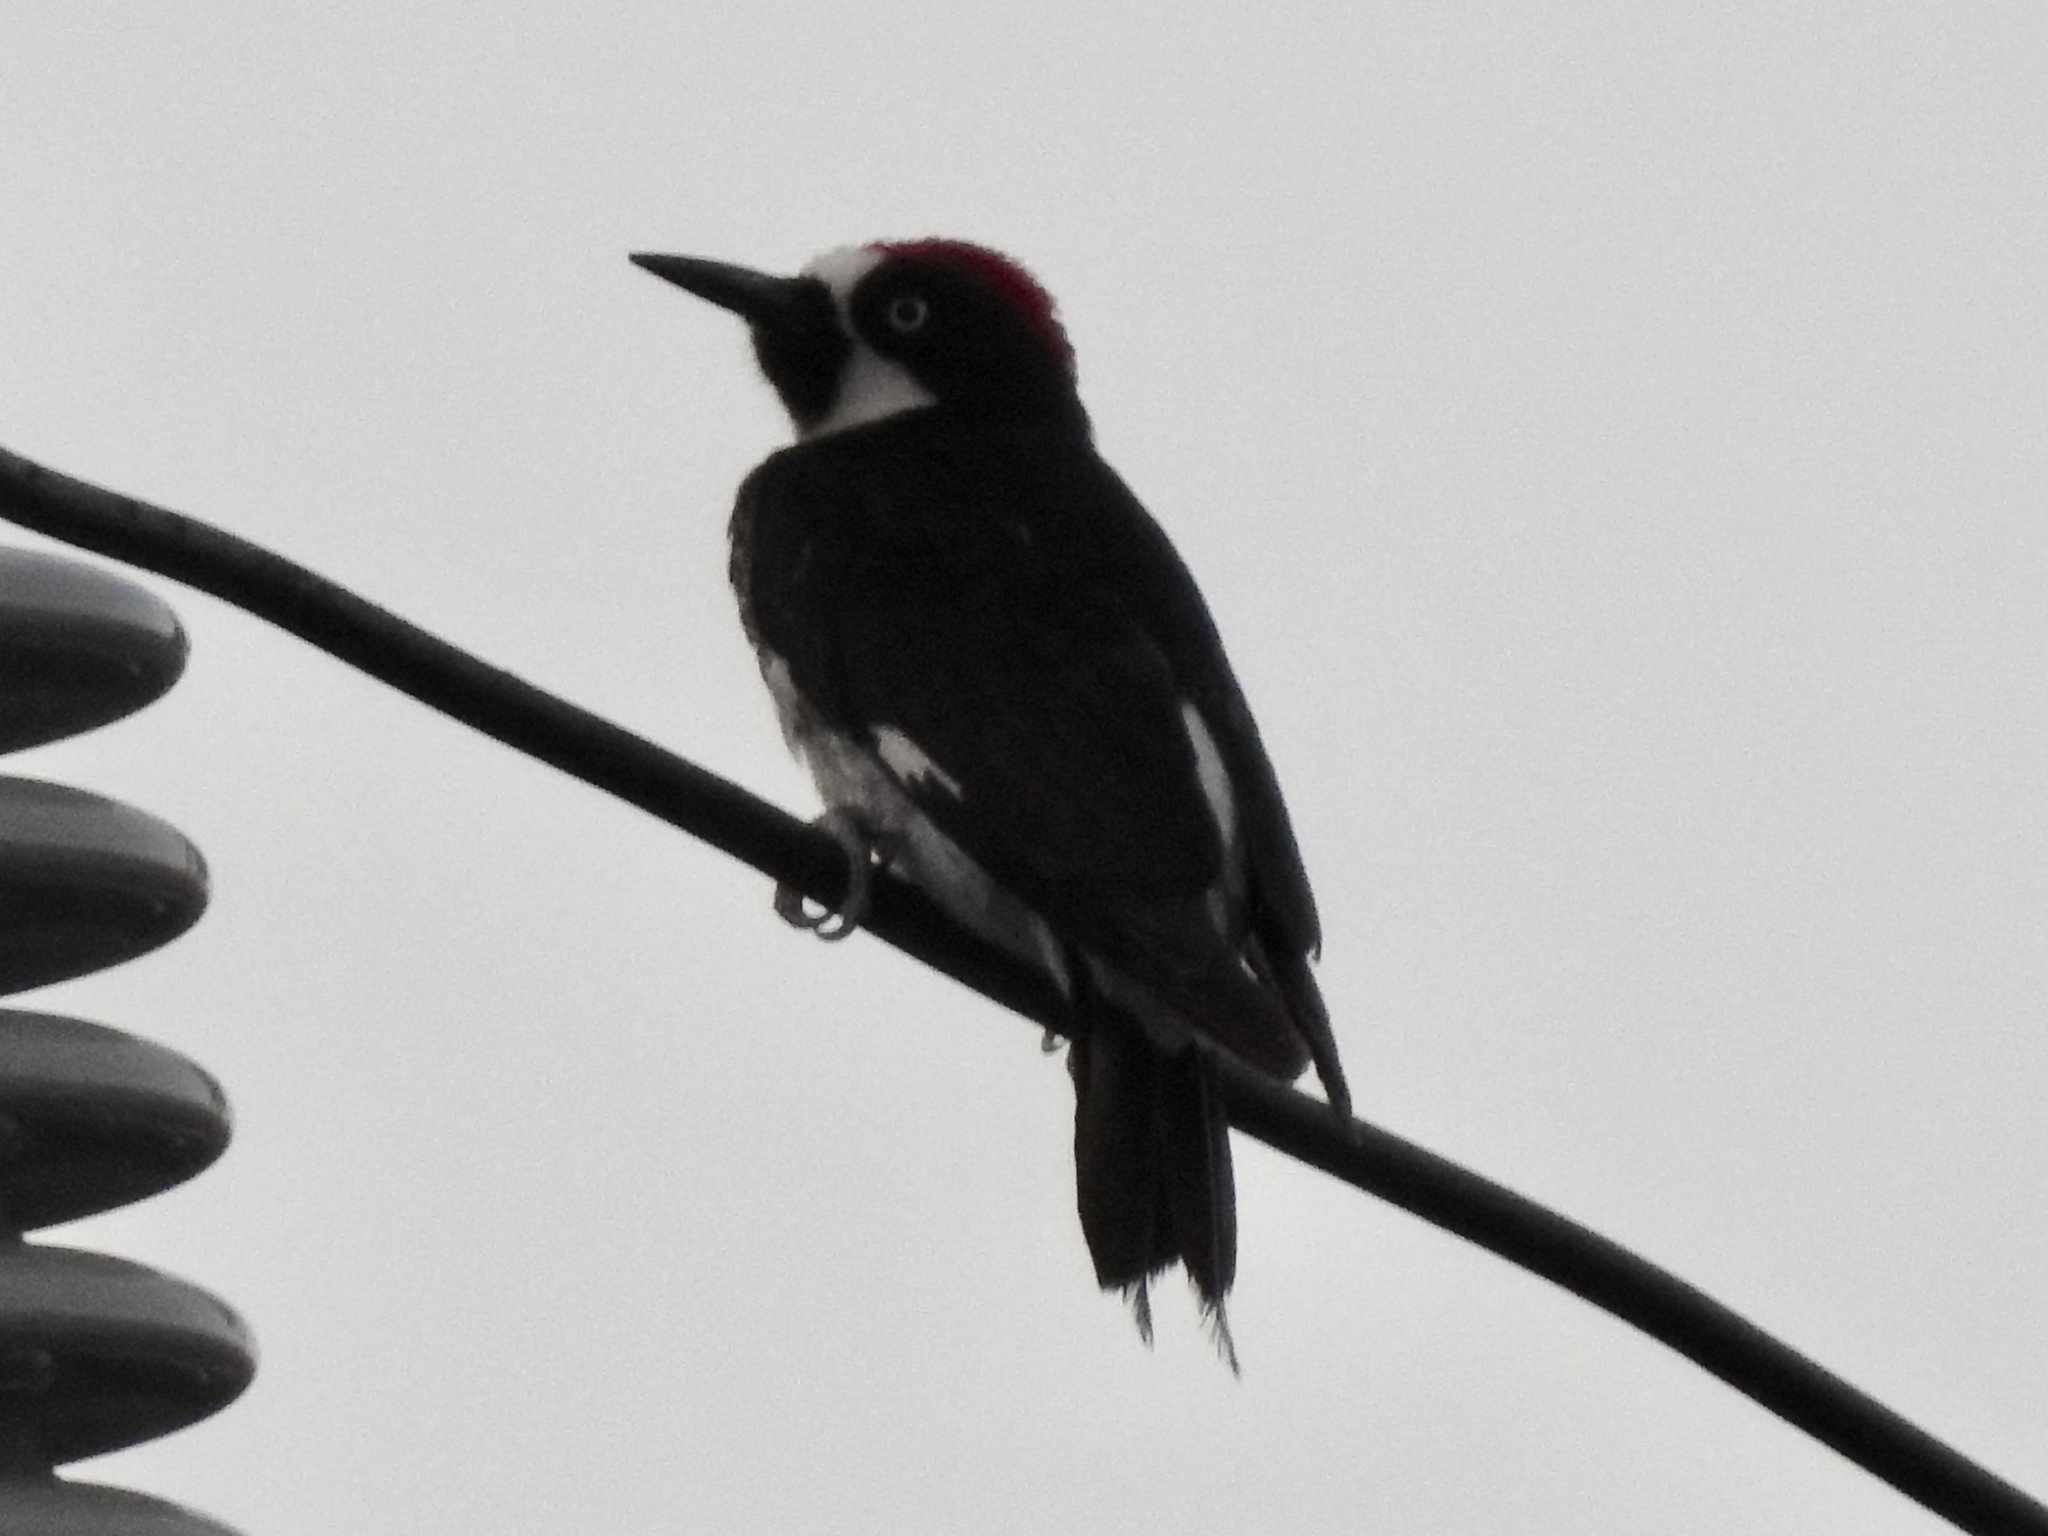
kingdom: Animalia
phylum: Chordata
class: Aves
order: Piciformes
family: Picidae
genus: Melanerpes
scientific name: Melanerpes formicivorus
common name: Acorn woodpecker
